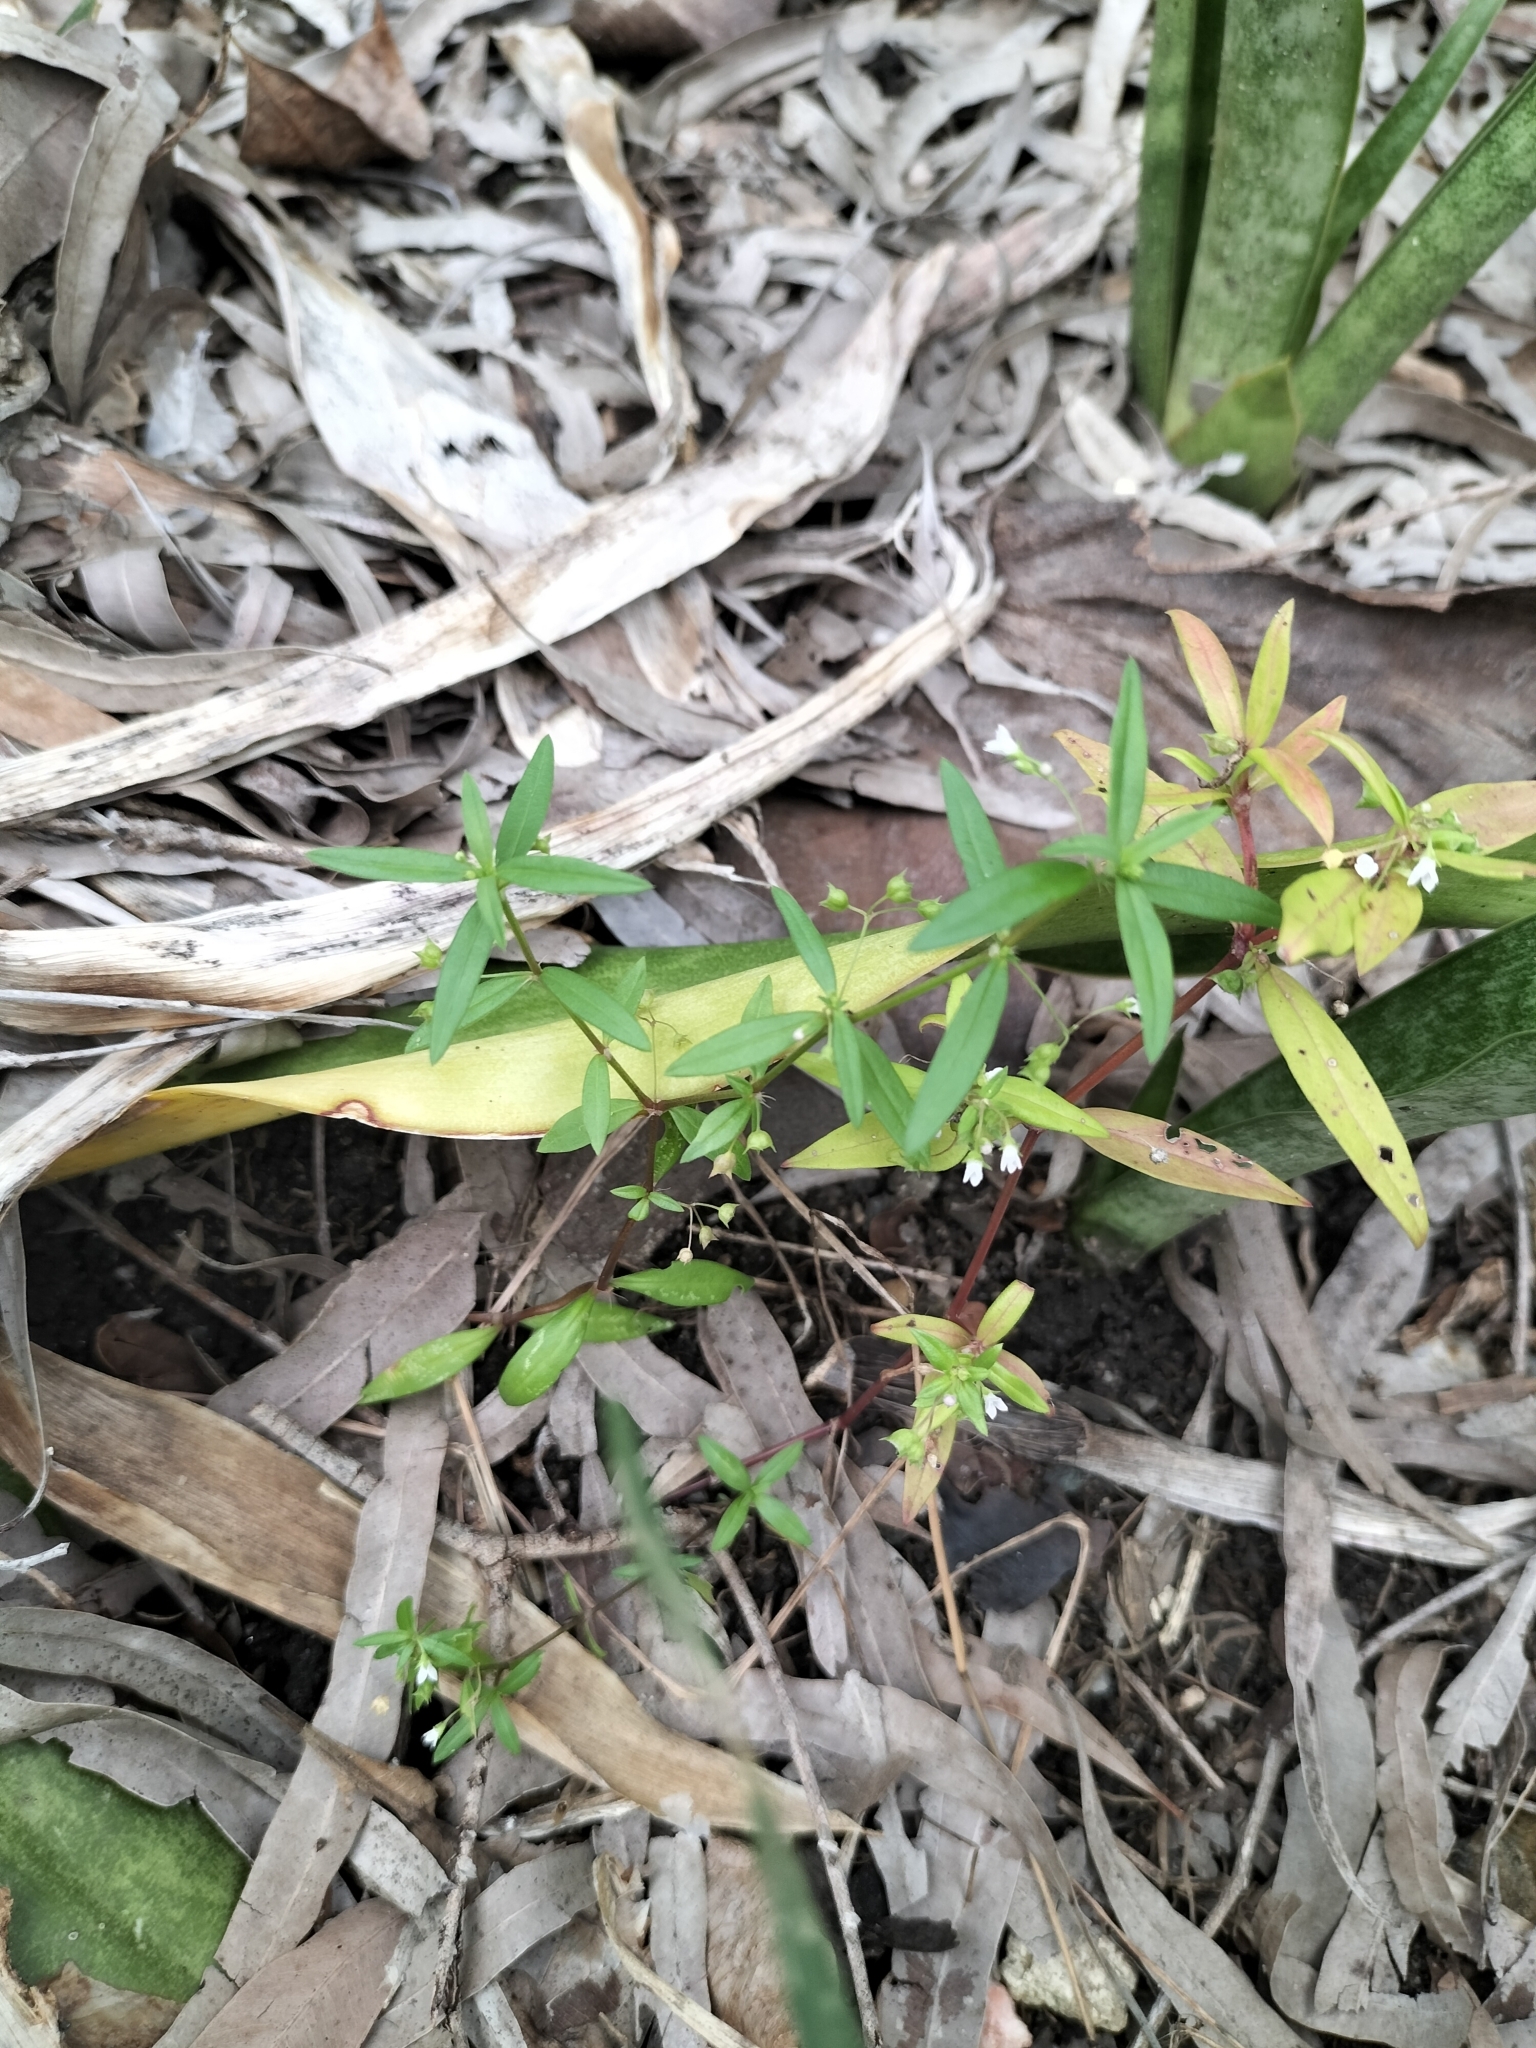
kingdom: Plantae
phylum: Tracheophyta
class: Magnoliopsida
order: Gentianales
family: Rubiaceae
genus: Oldenlandia
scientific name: Oldenlandia corymbosa
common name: Flat-top mille graines
